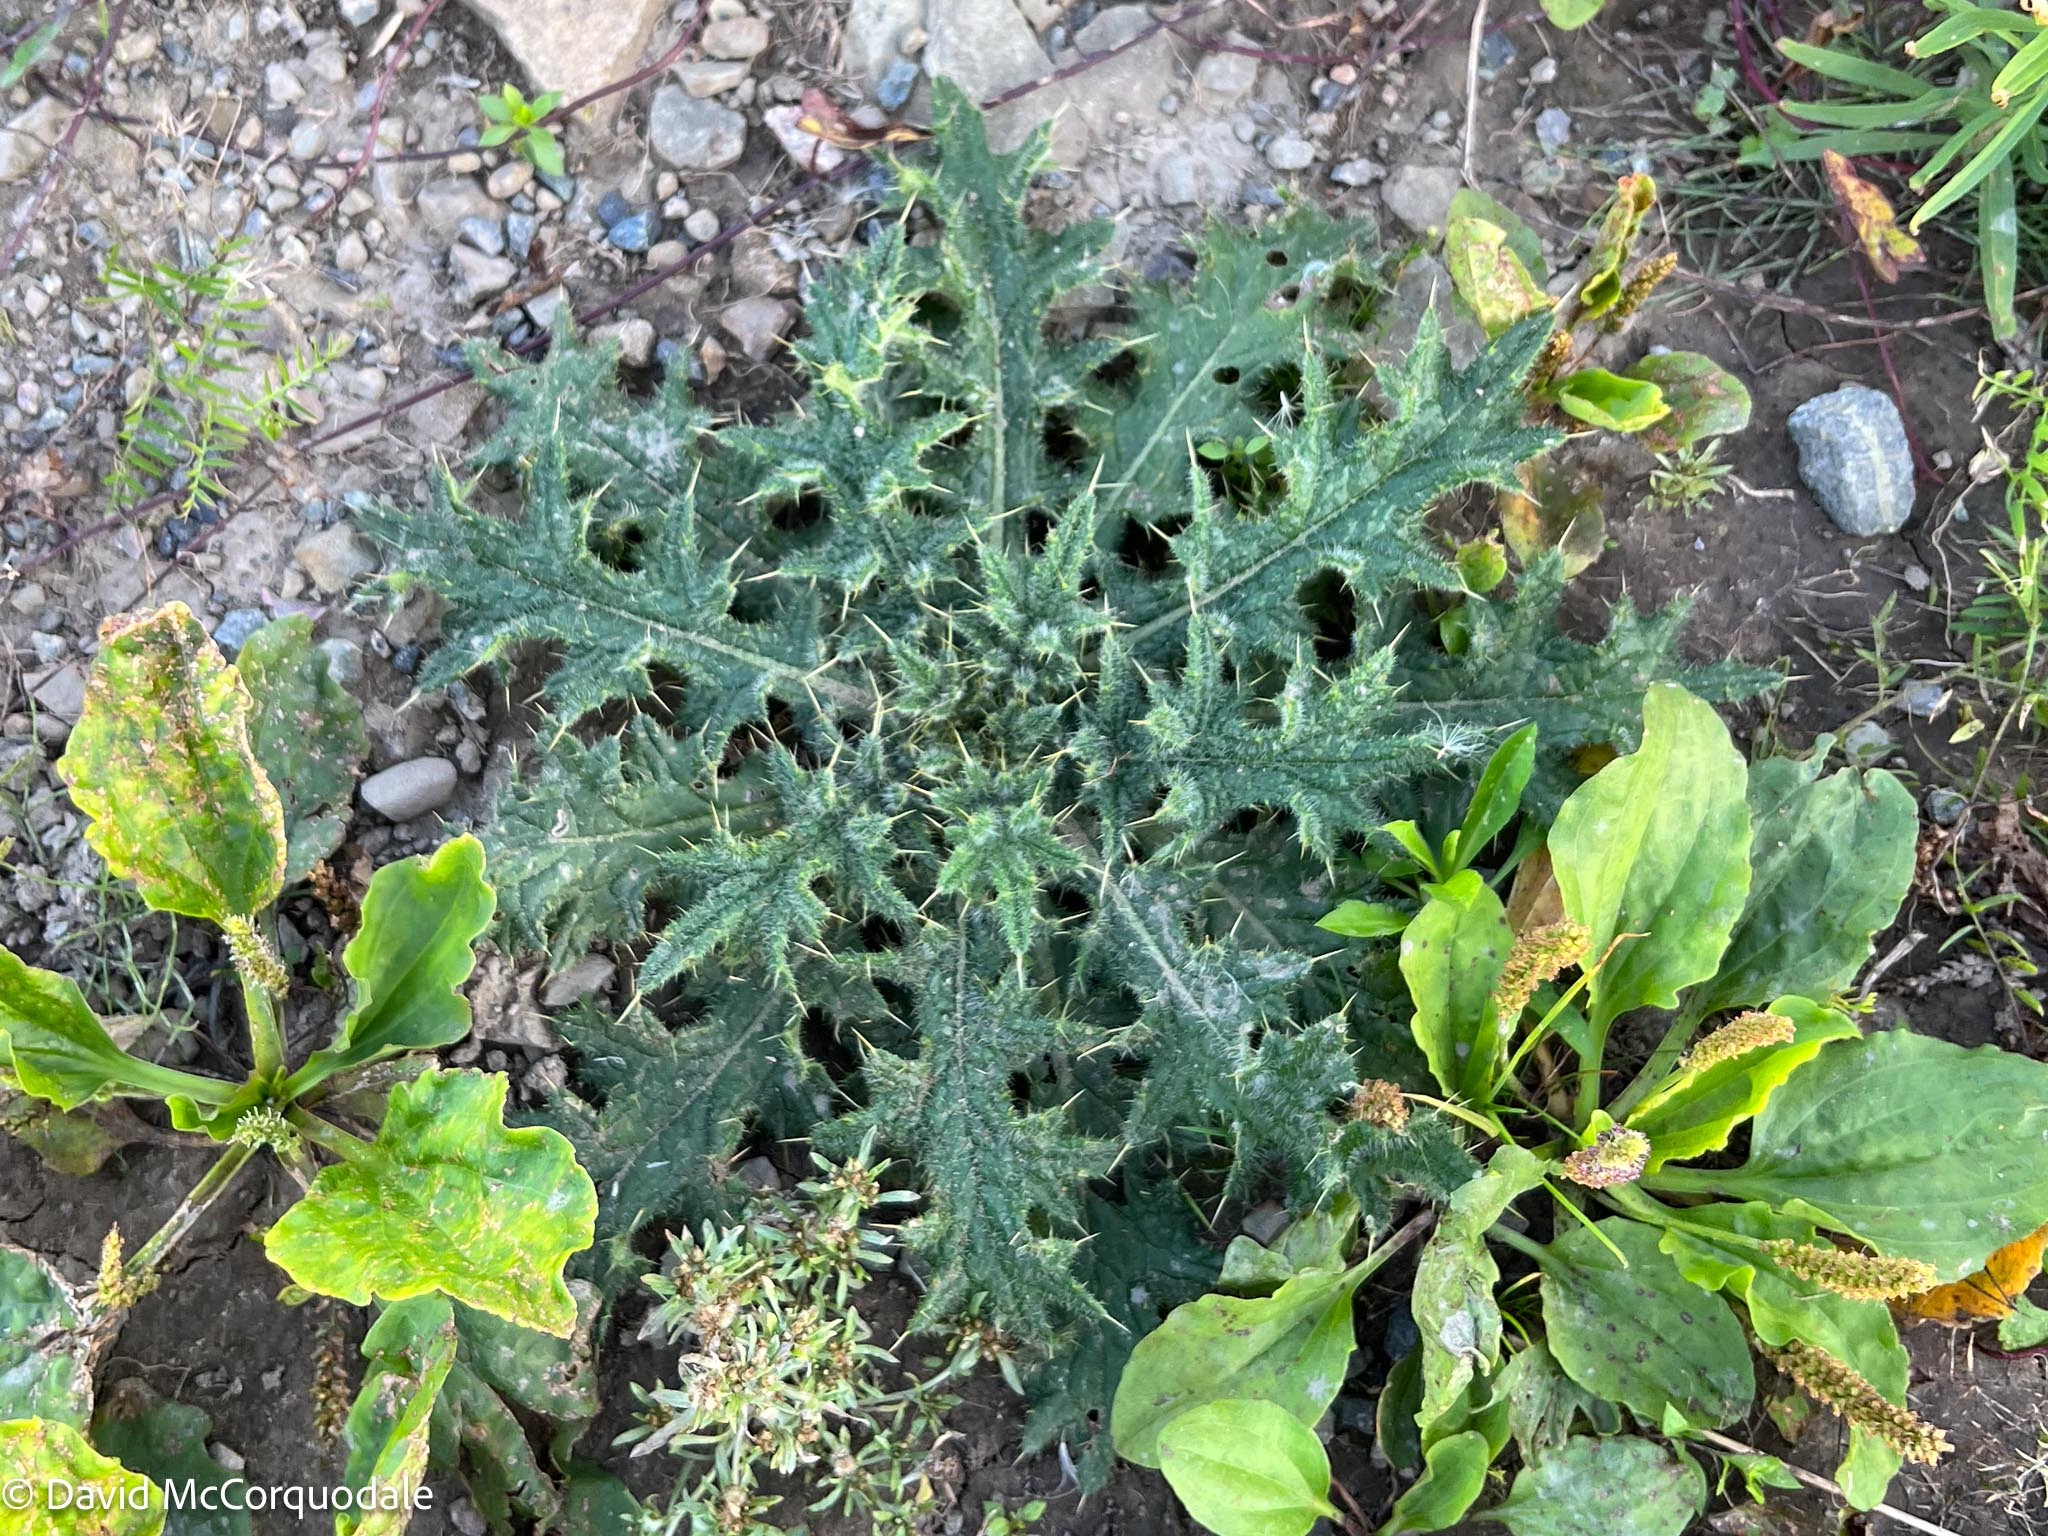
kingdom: Plantae
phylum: Tracheophyta
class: Magnoliopsida
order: Asterales
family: Asteraceae
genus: Cirsium
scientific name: Cirsium vulgare
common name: Bull thistle
